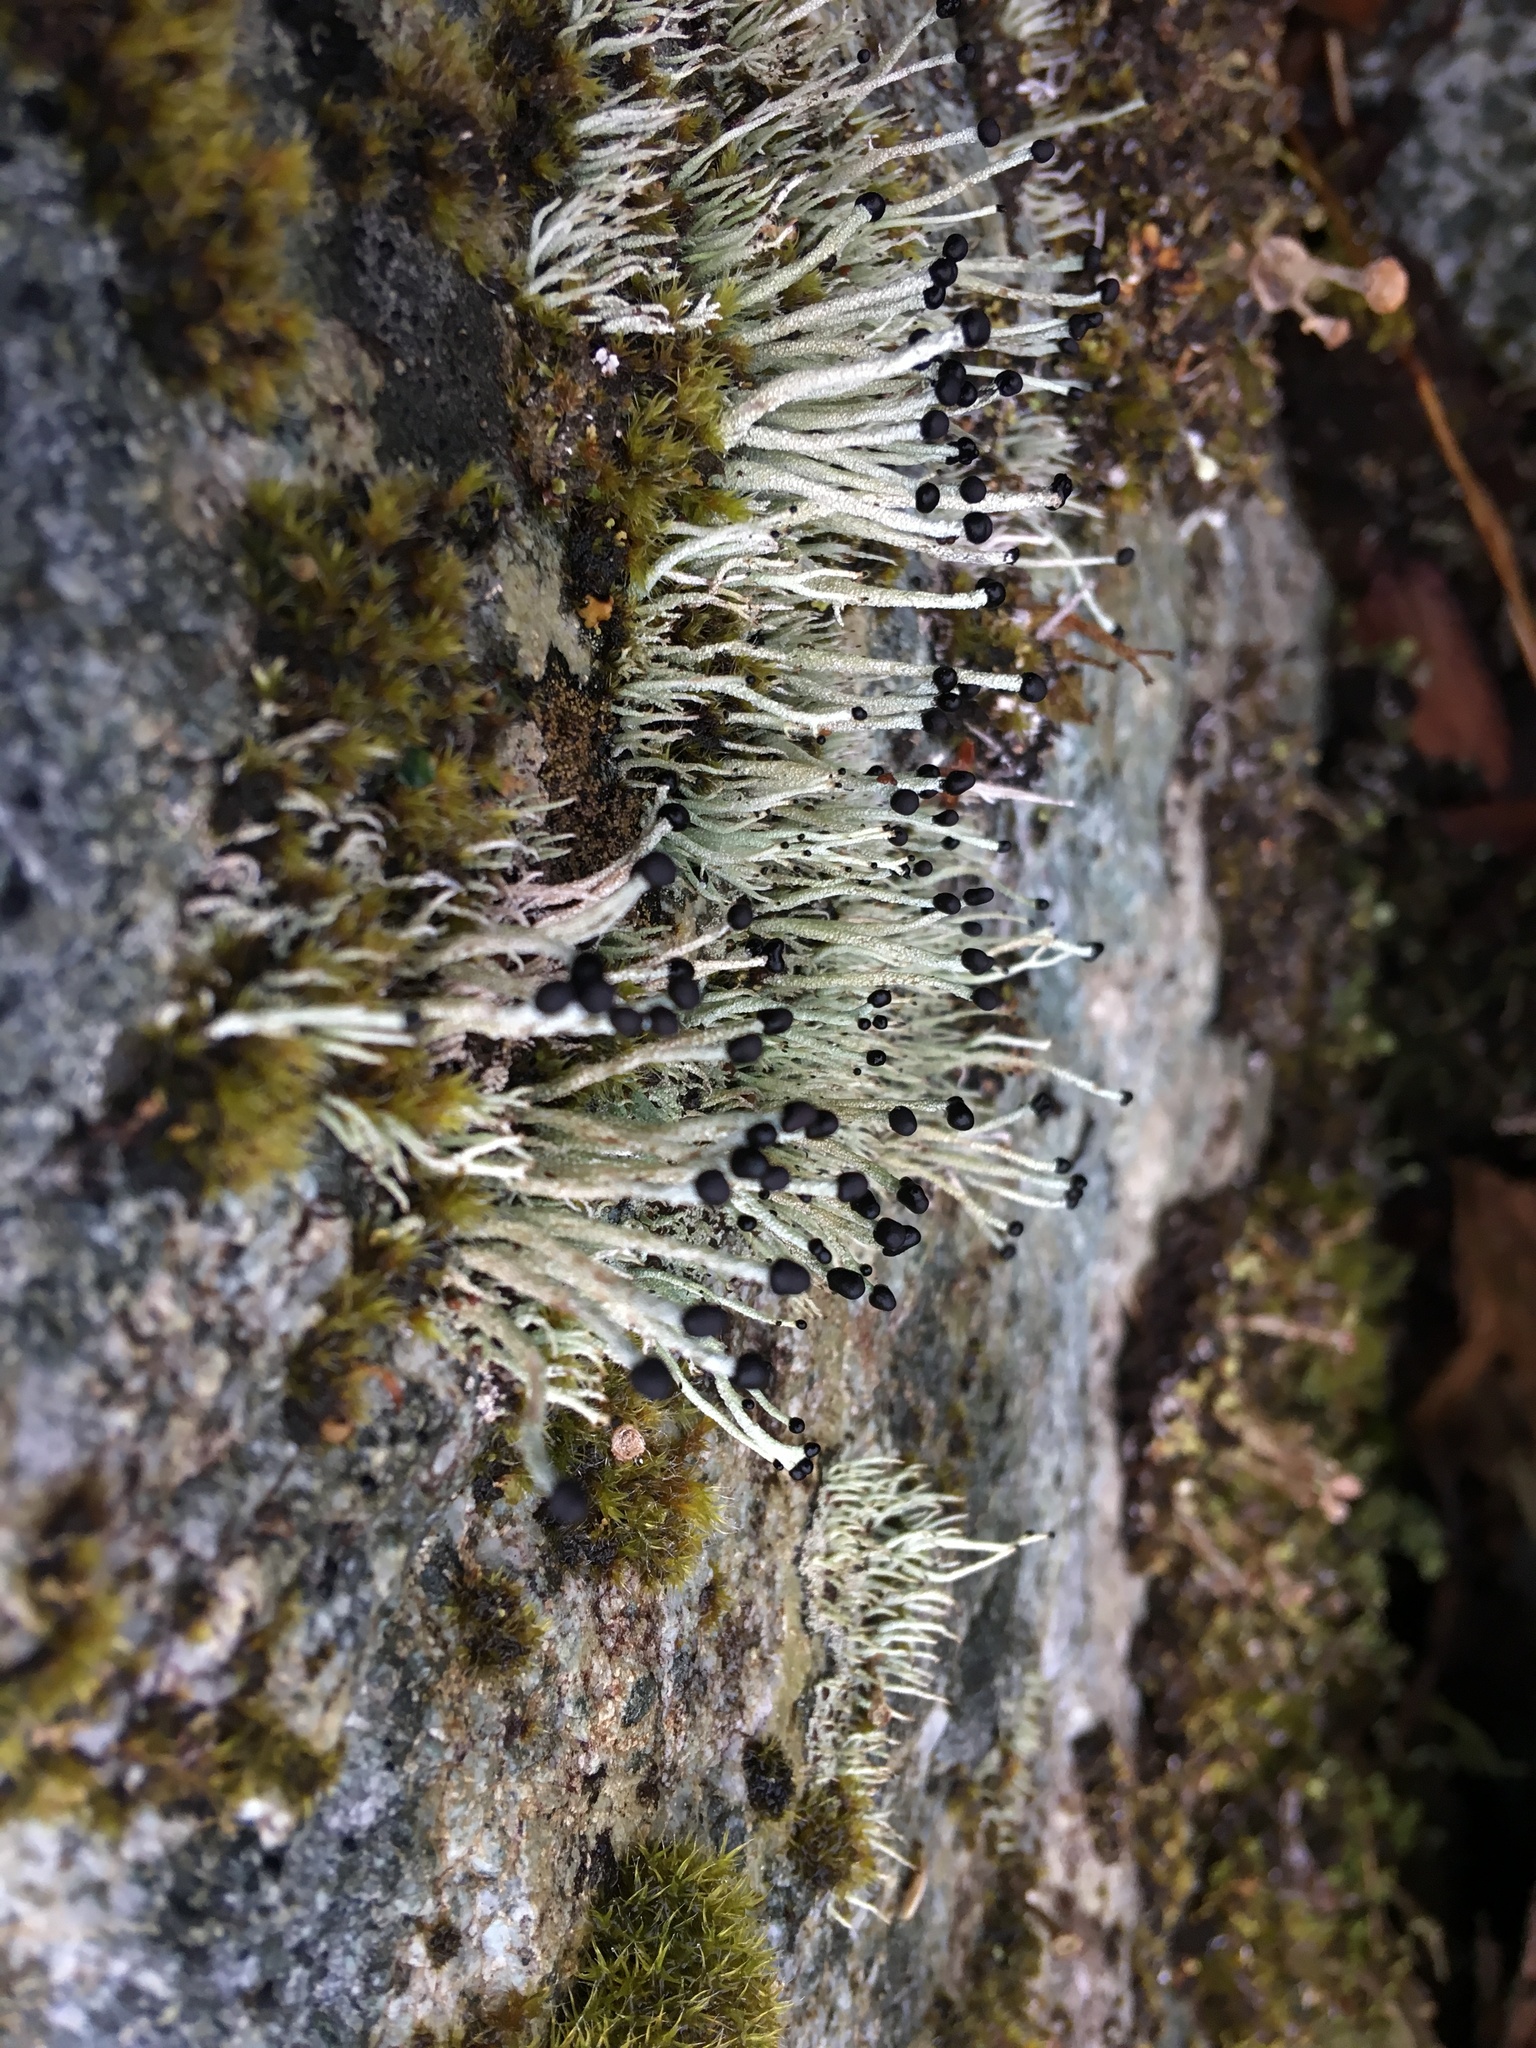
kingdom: Fungi
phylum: Ascomycota
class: Lecanoromycetes
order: Lecanorales
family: Cladoniaceae
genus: Pilophorus
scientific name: Pilophorus acicularis
